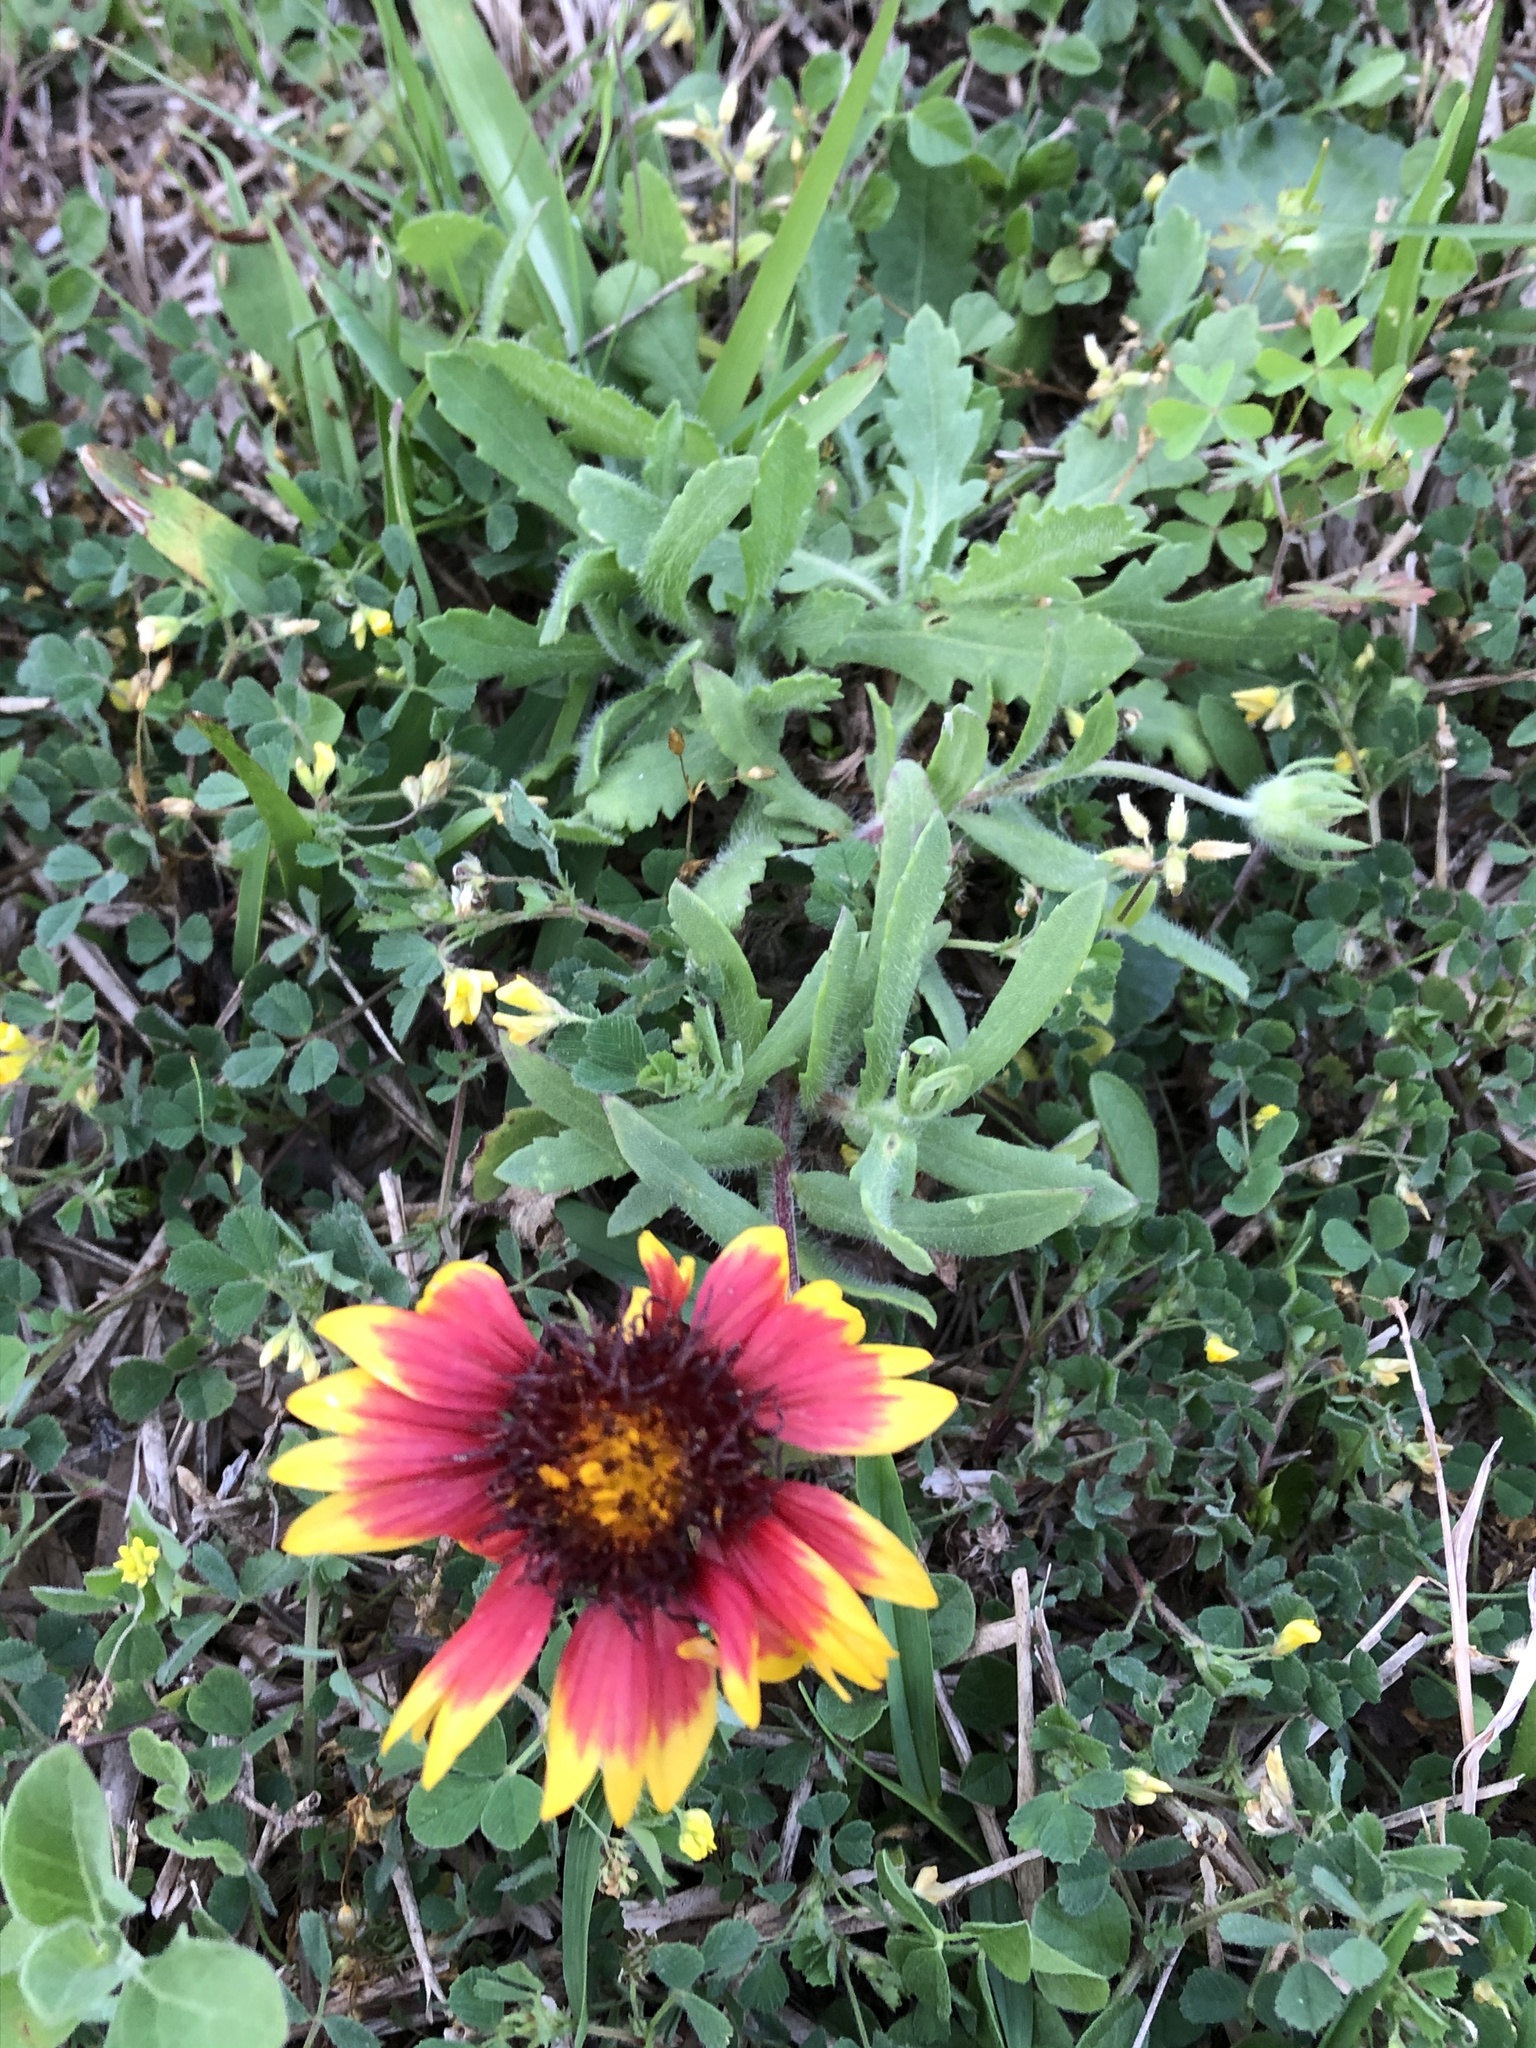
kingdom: Plantae
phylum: Tracheophyta
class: Magnoliopsida
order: Asterales
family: Asteraceae
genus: Gaillardia
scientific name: Gaillardia pulchella
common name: Firewheel
